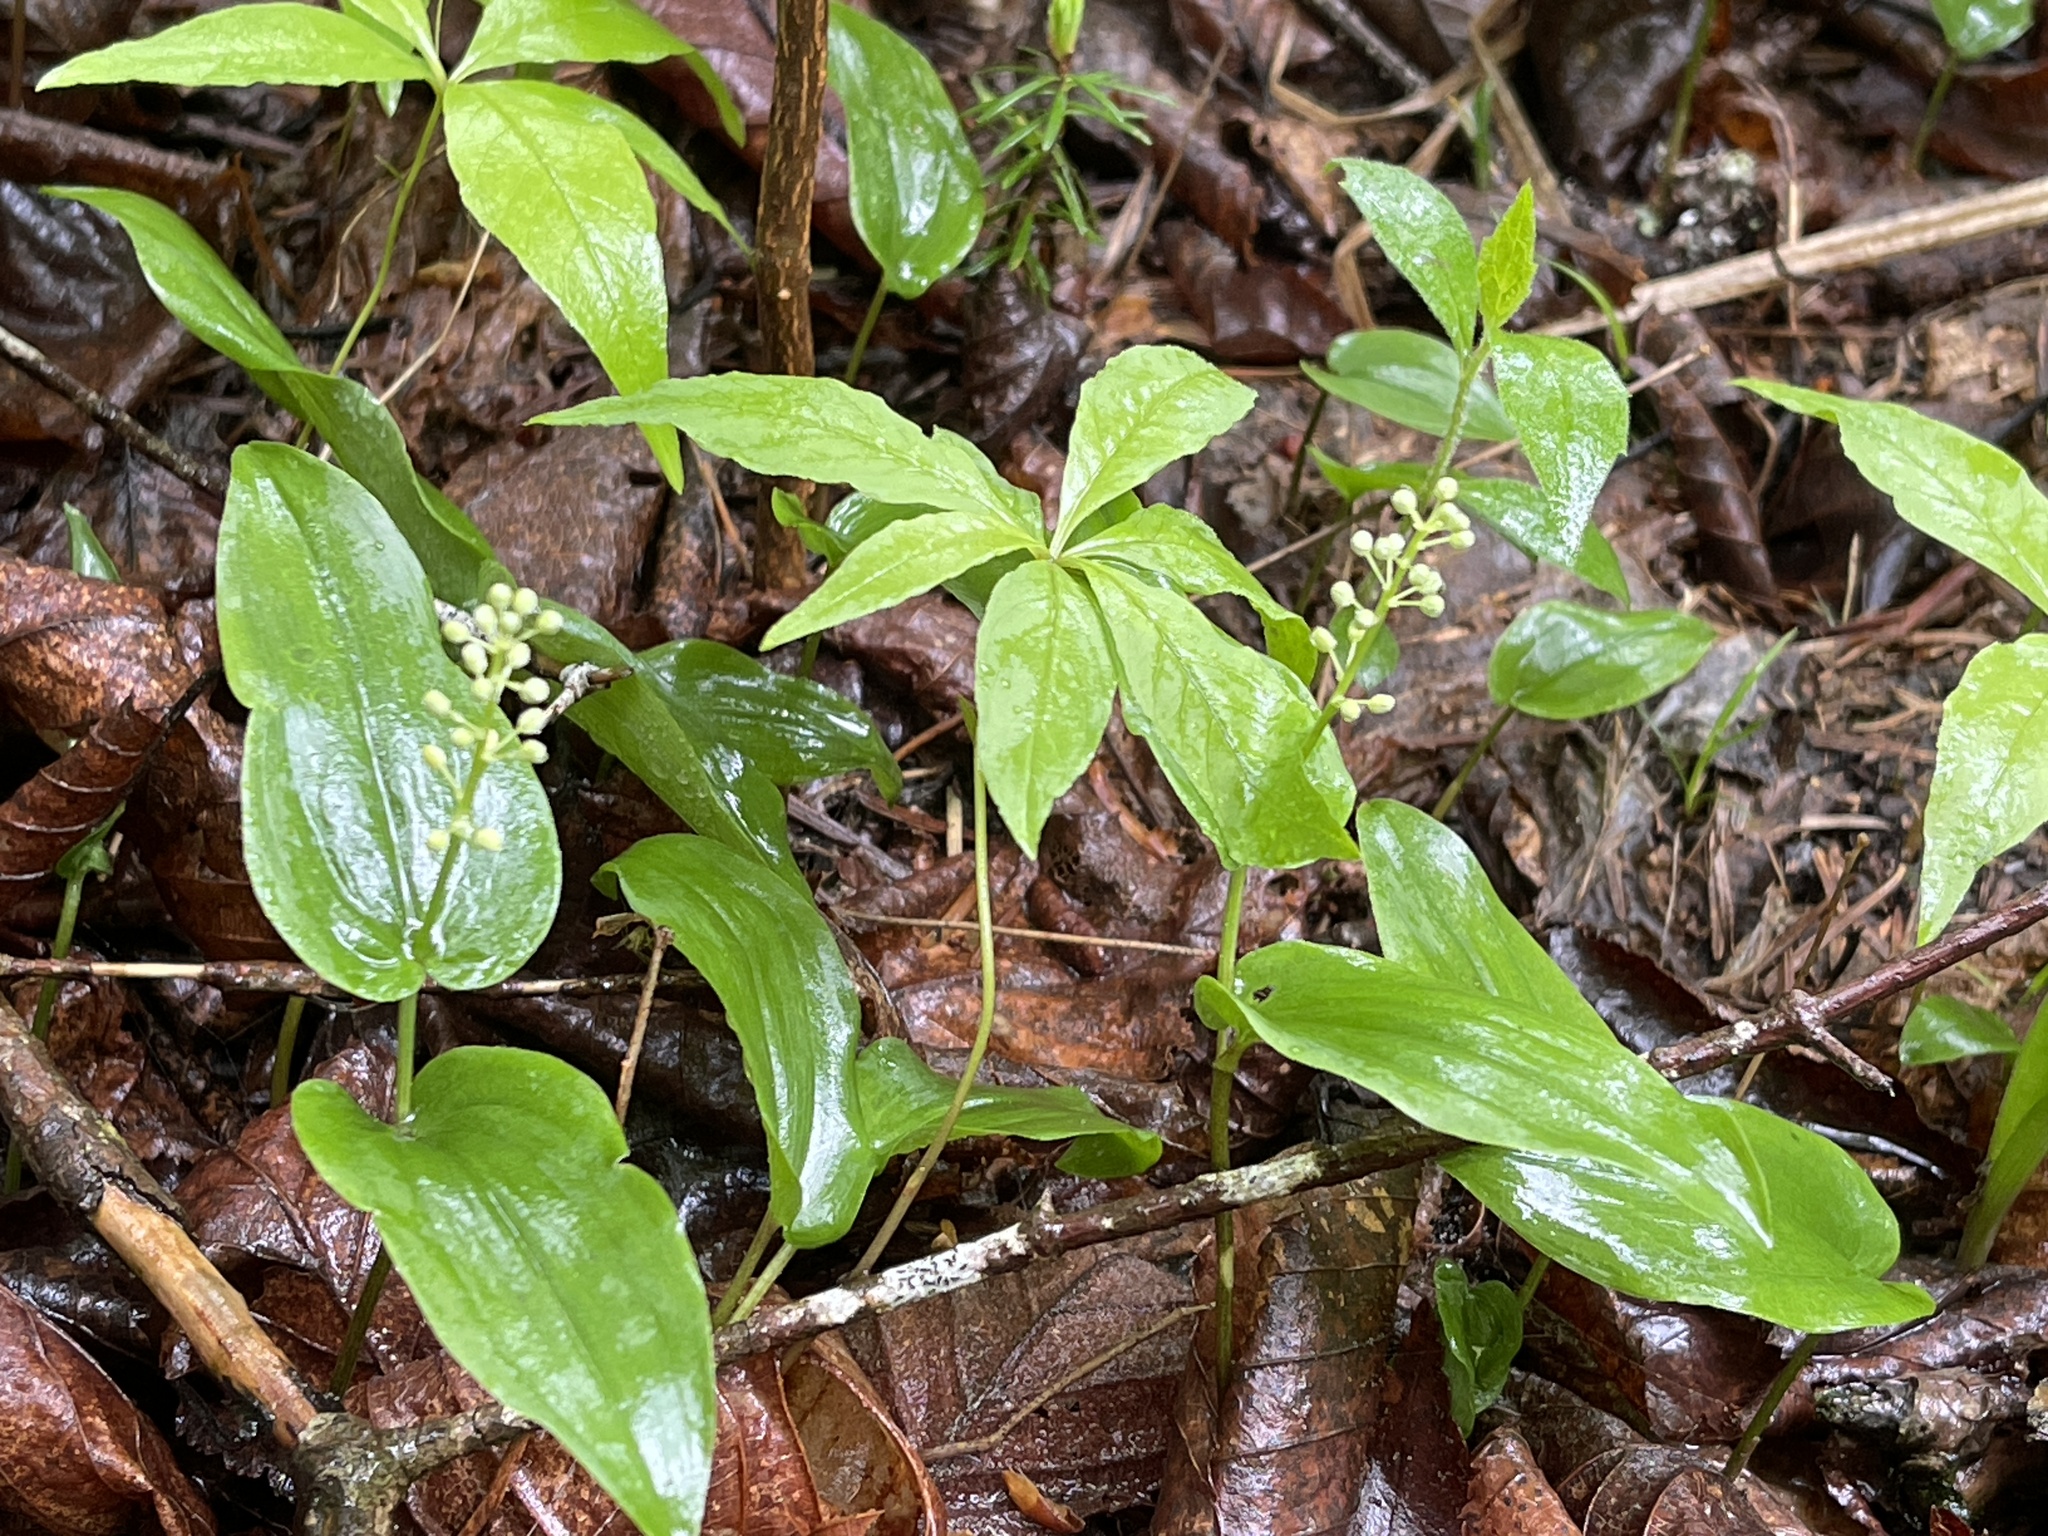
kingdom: Plantae
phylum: Tracheophyta
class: Liliopsida
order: Asparagales
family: Asparagaceae
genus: Maianthemum
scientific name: Maianthemum canadense
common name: False lily-of-the-valley
